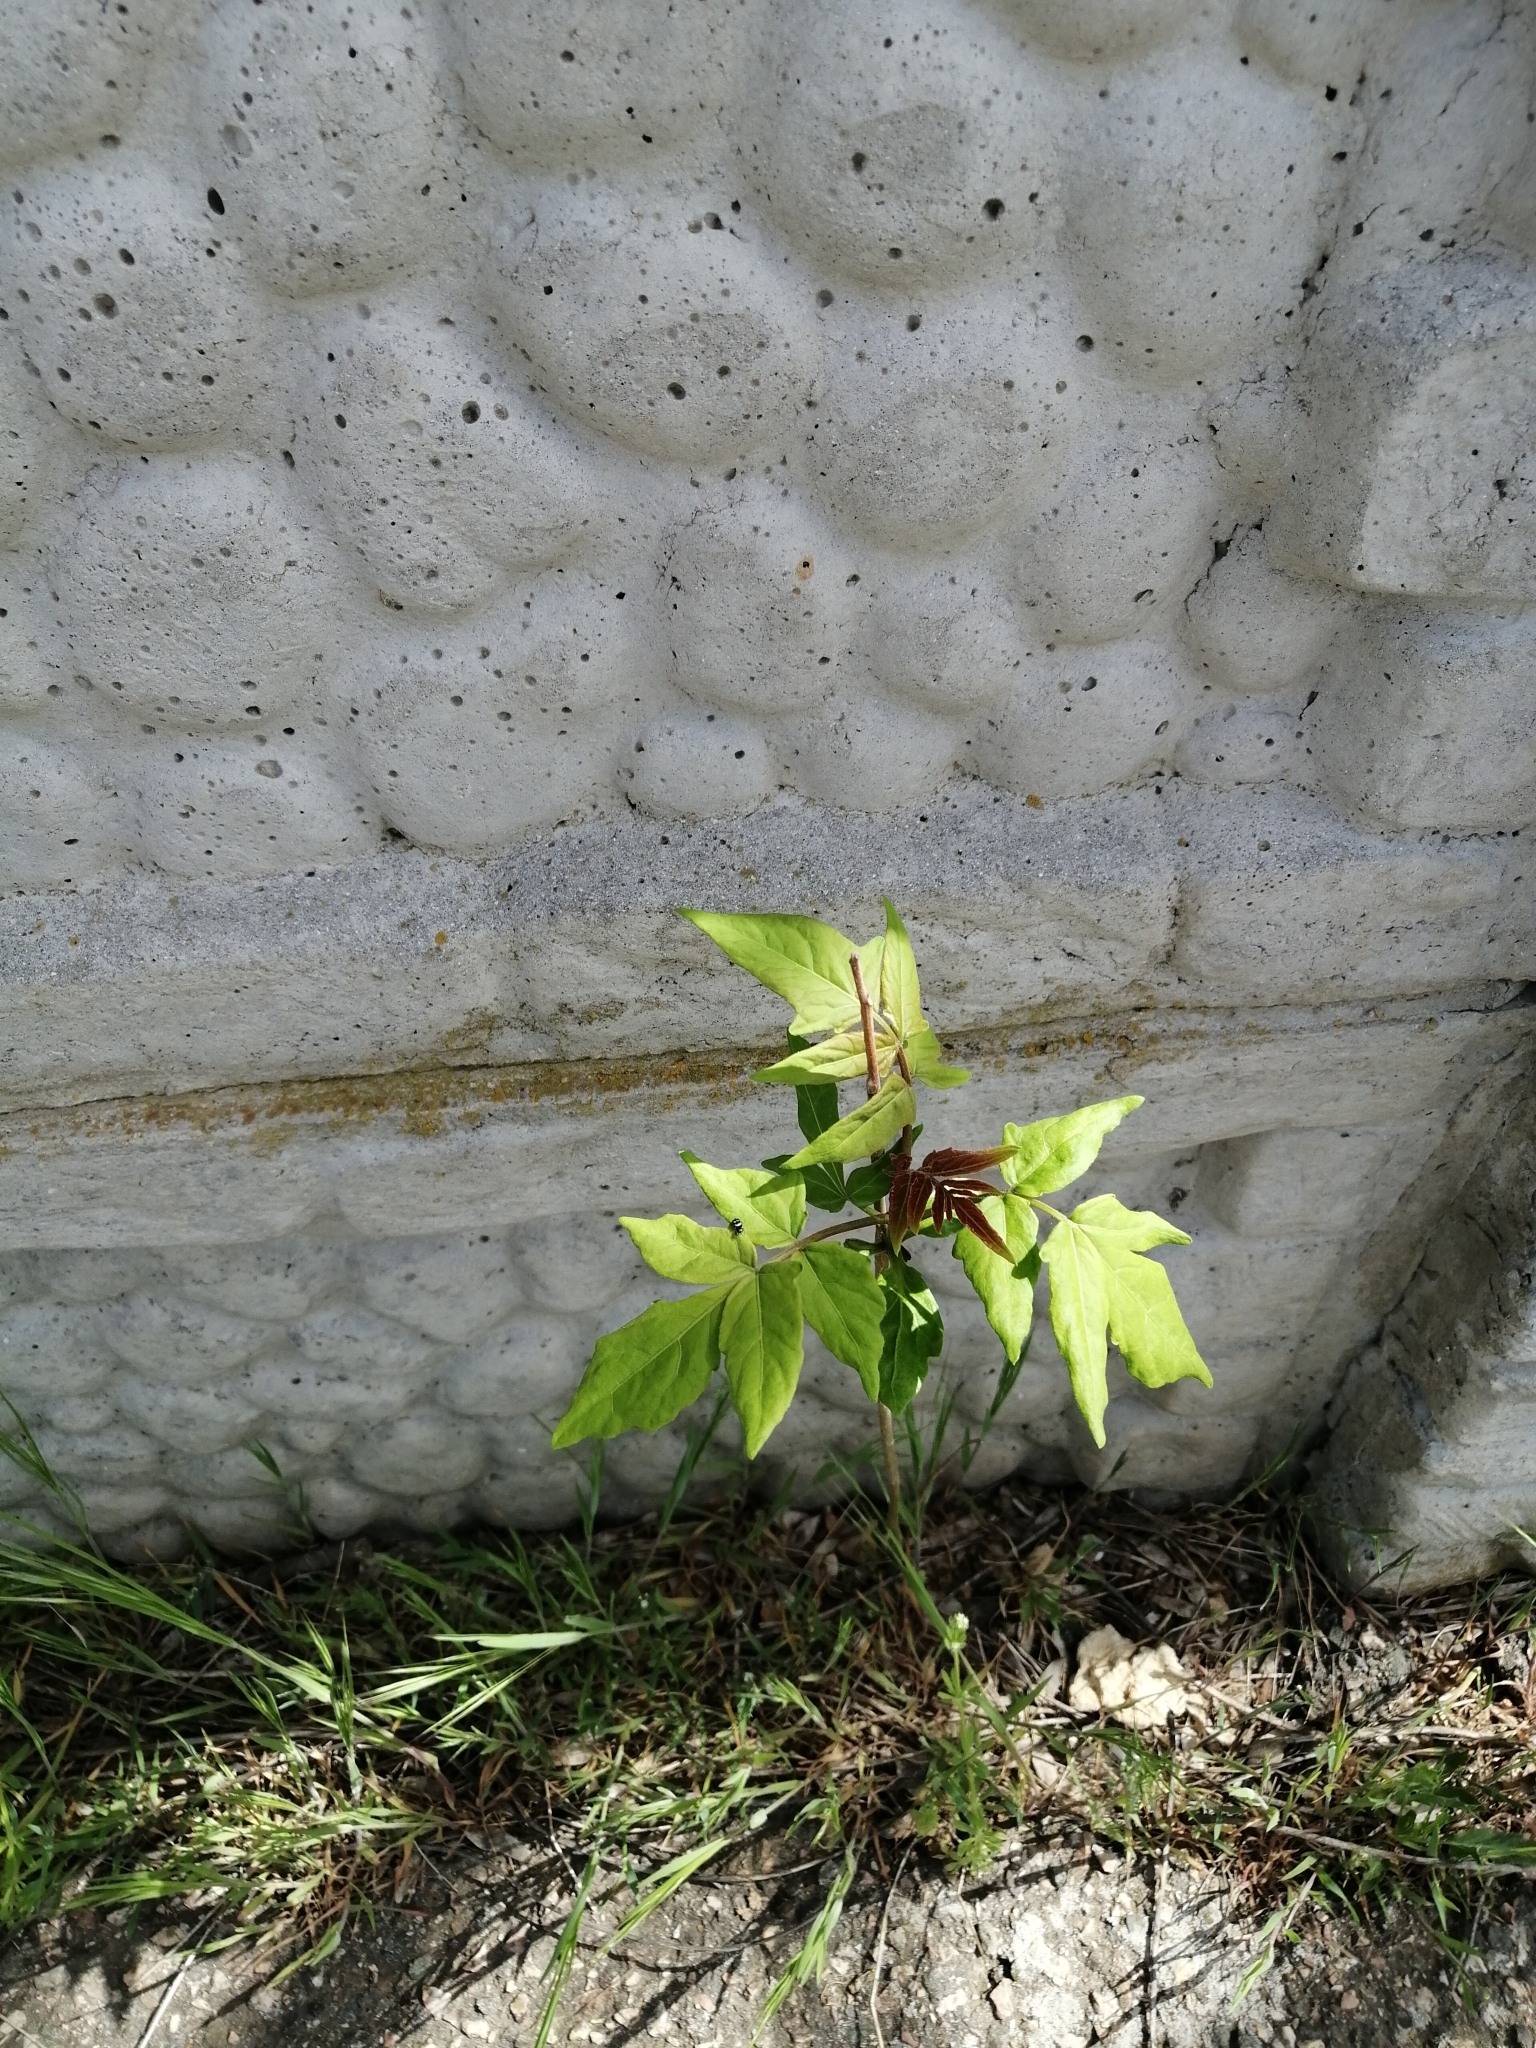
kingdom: Plantae
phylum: Tracheophyta
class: Magnoliopsida
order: Sapindales
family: Simaroubaceae
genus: Ailanthus
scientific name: Ailanthus altissima
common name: Tree-of-heaven
